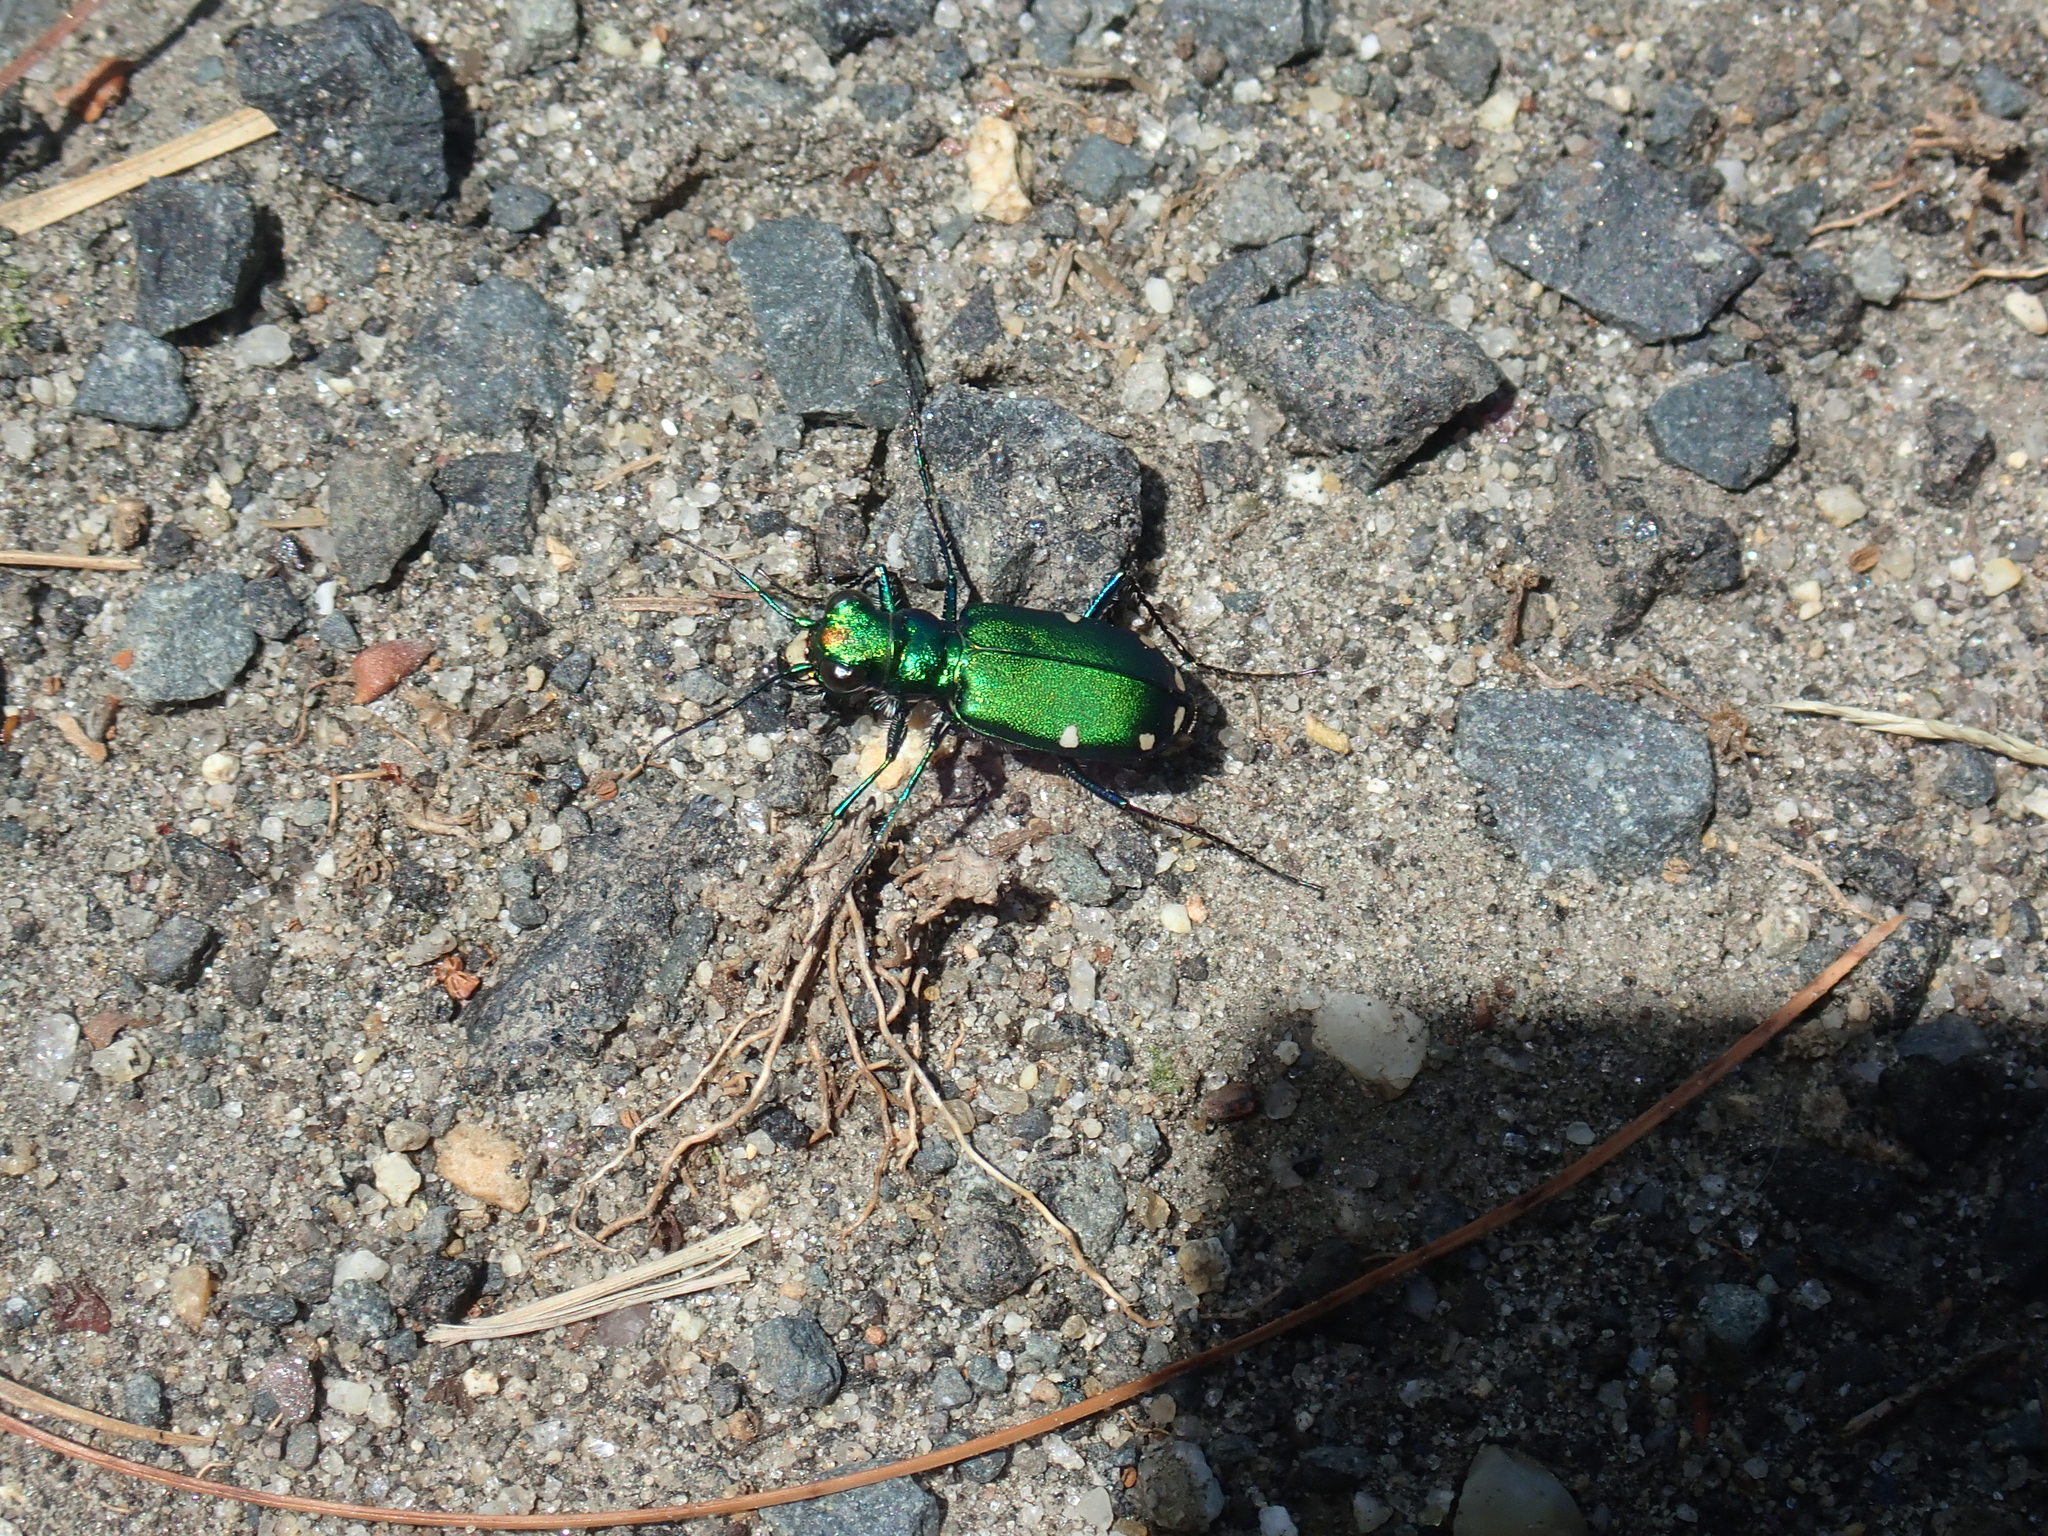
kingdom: Animalia
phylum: Arthropoda
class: Insecta
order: Coleoptera
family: Carabidae
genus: Cicindela
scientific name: Cicindela sexguttata
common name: Six-spotted tiger beetle
